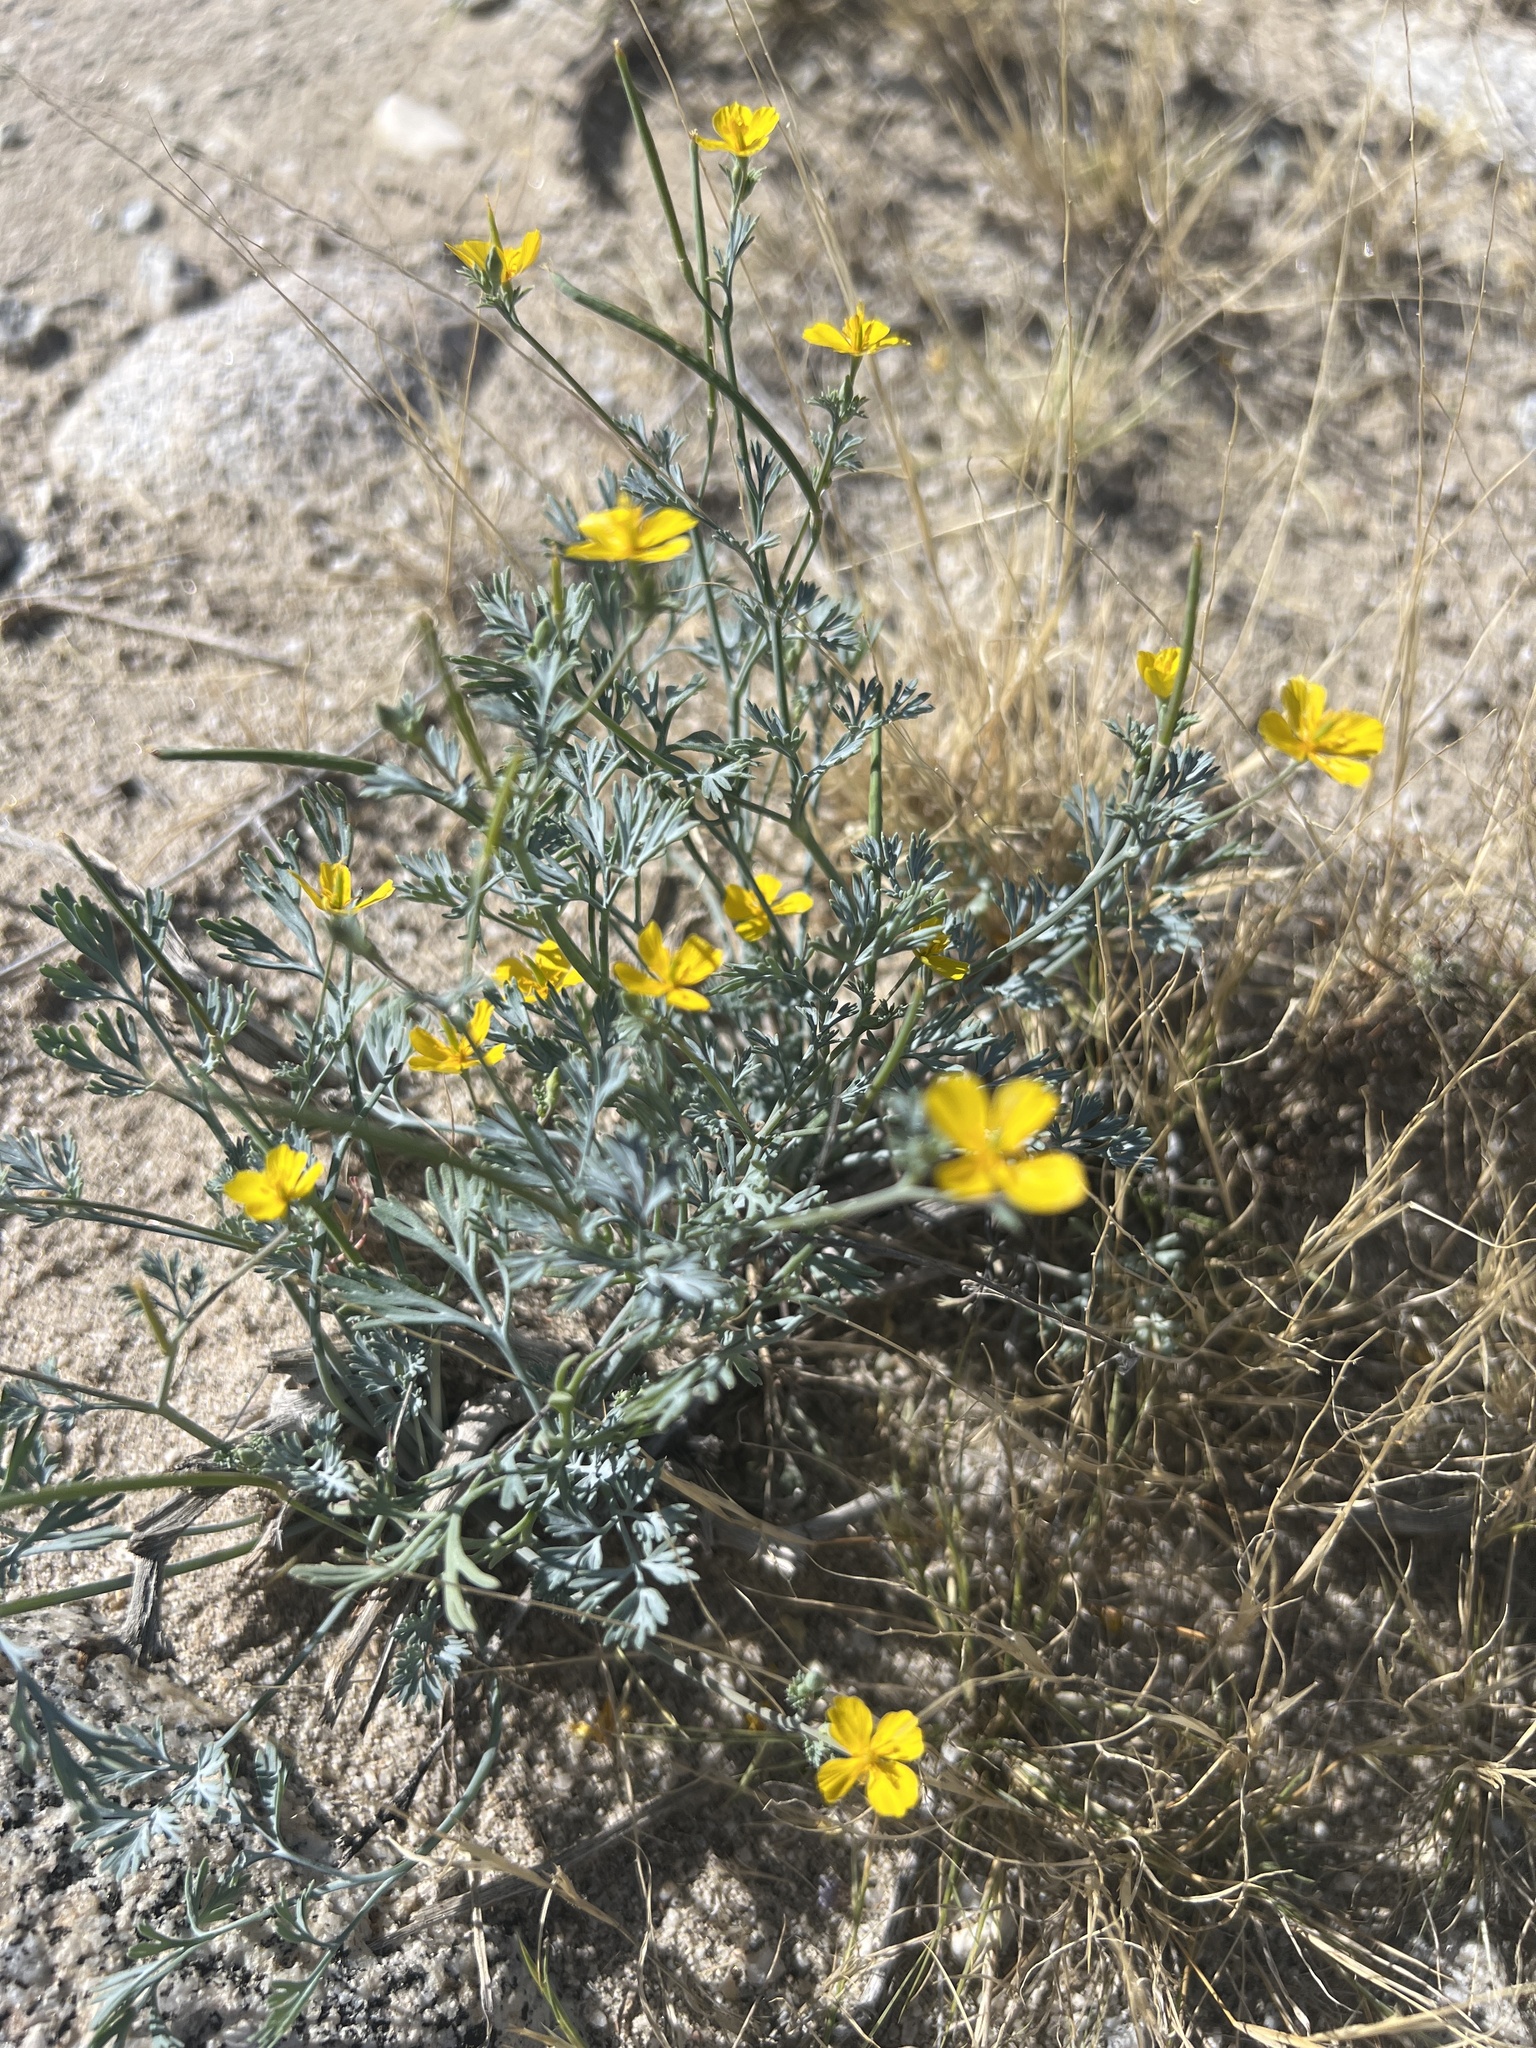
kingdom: Plantae
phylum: Tracheophyta
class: Magnoliopsida
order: Ranunculales
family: Papaveraceae
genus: Eschscholzia
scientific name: Eschscholzia minutiflora
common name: Small-flower california-poppy
